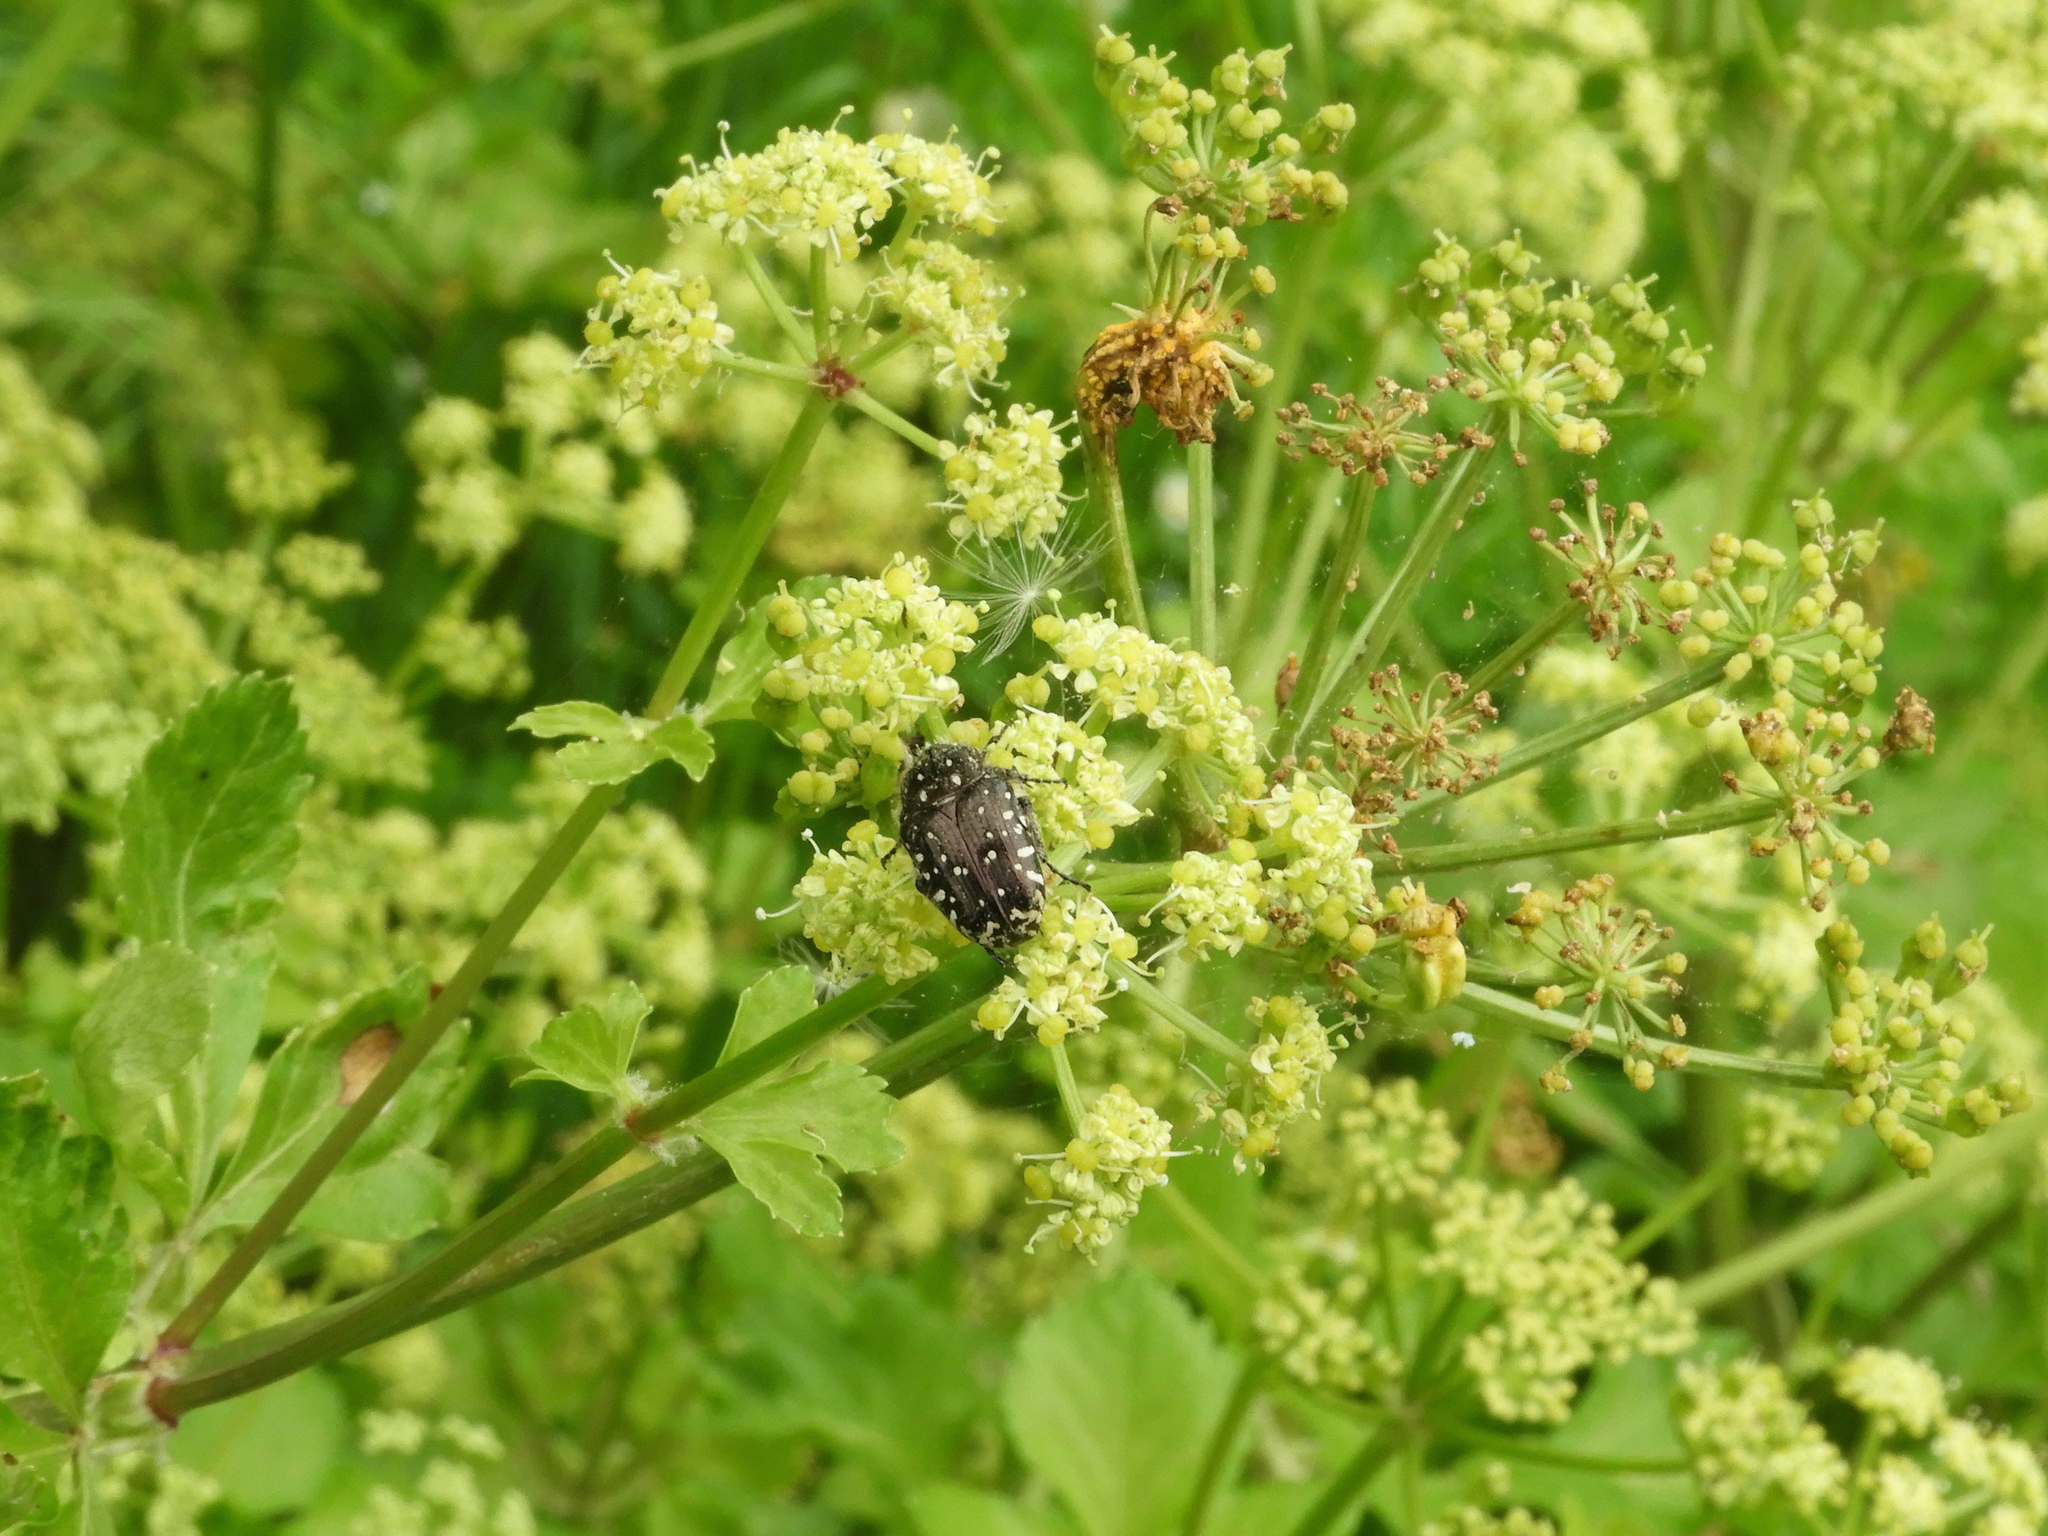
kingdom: Animalia
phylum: Arthropoda
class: Insecta
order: Coleoptera
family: Scarabaeidae
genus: Oxythyrea
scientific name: Oxythyrea funesta
